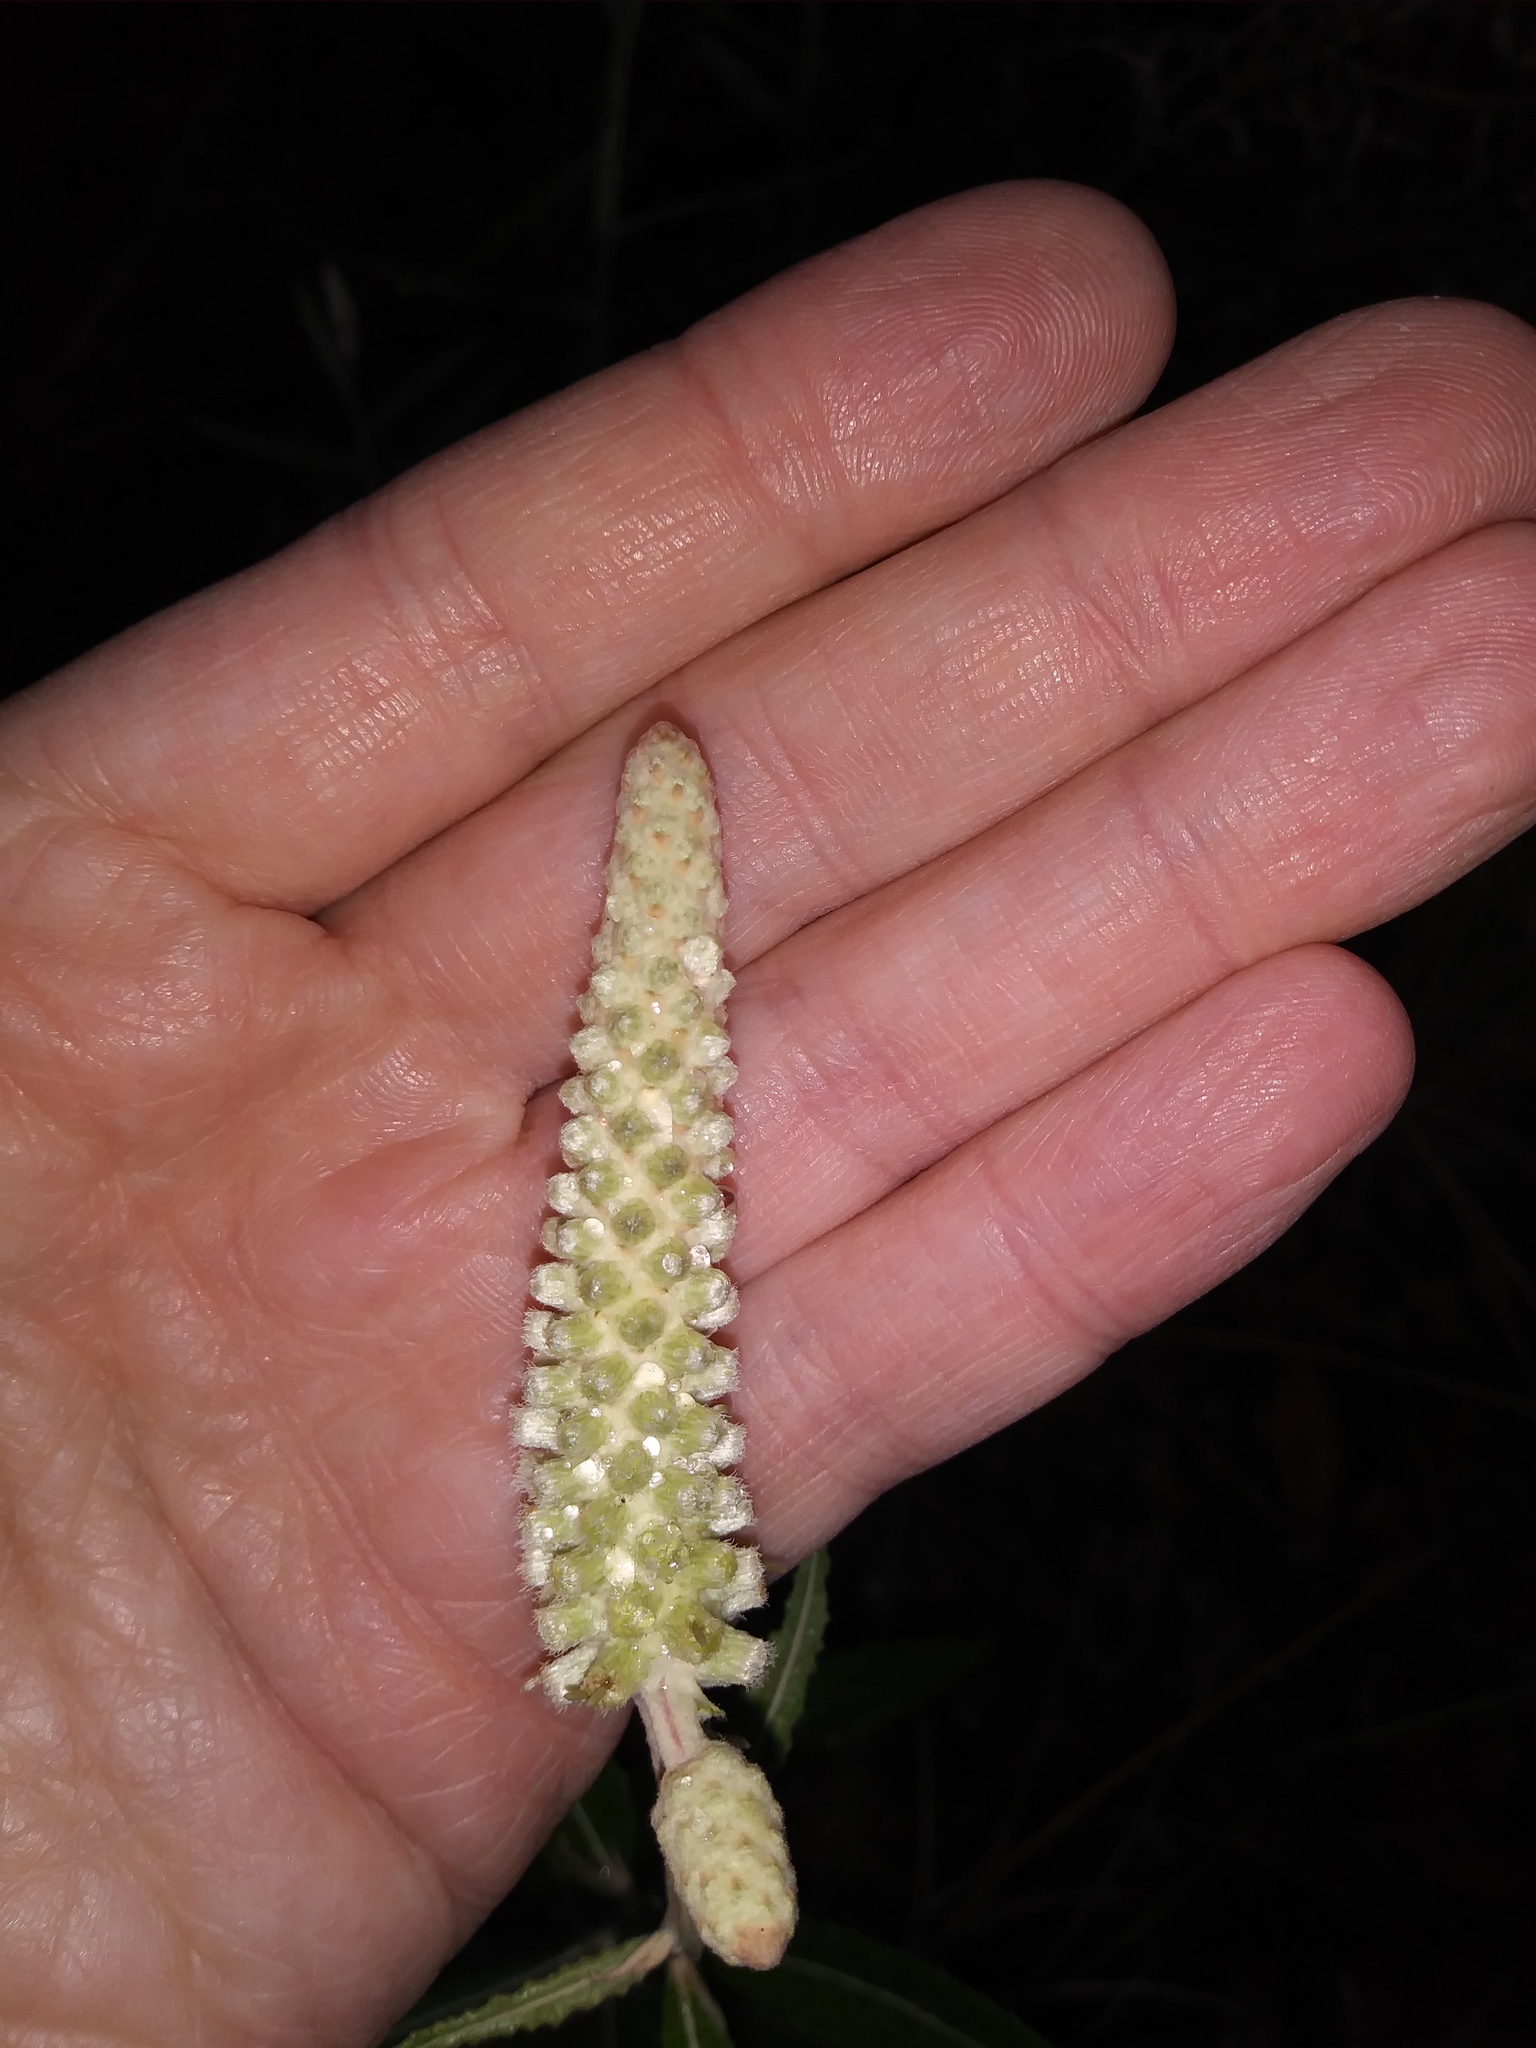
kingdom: Plantae
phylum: Tracheophyta
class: Magnoliopsida
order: Asterales
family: Asteraceae
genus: Pterocaulon
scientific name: Pterocaulon pycnostachyum
